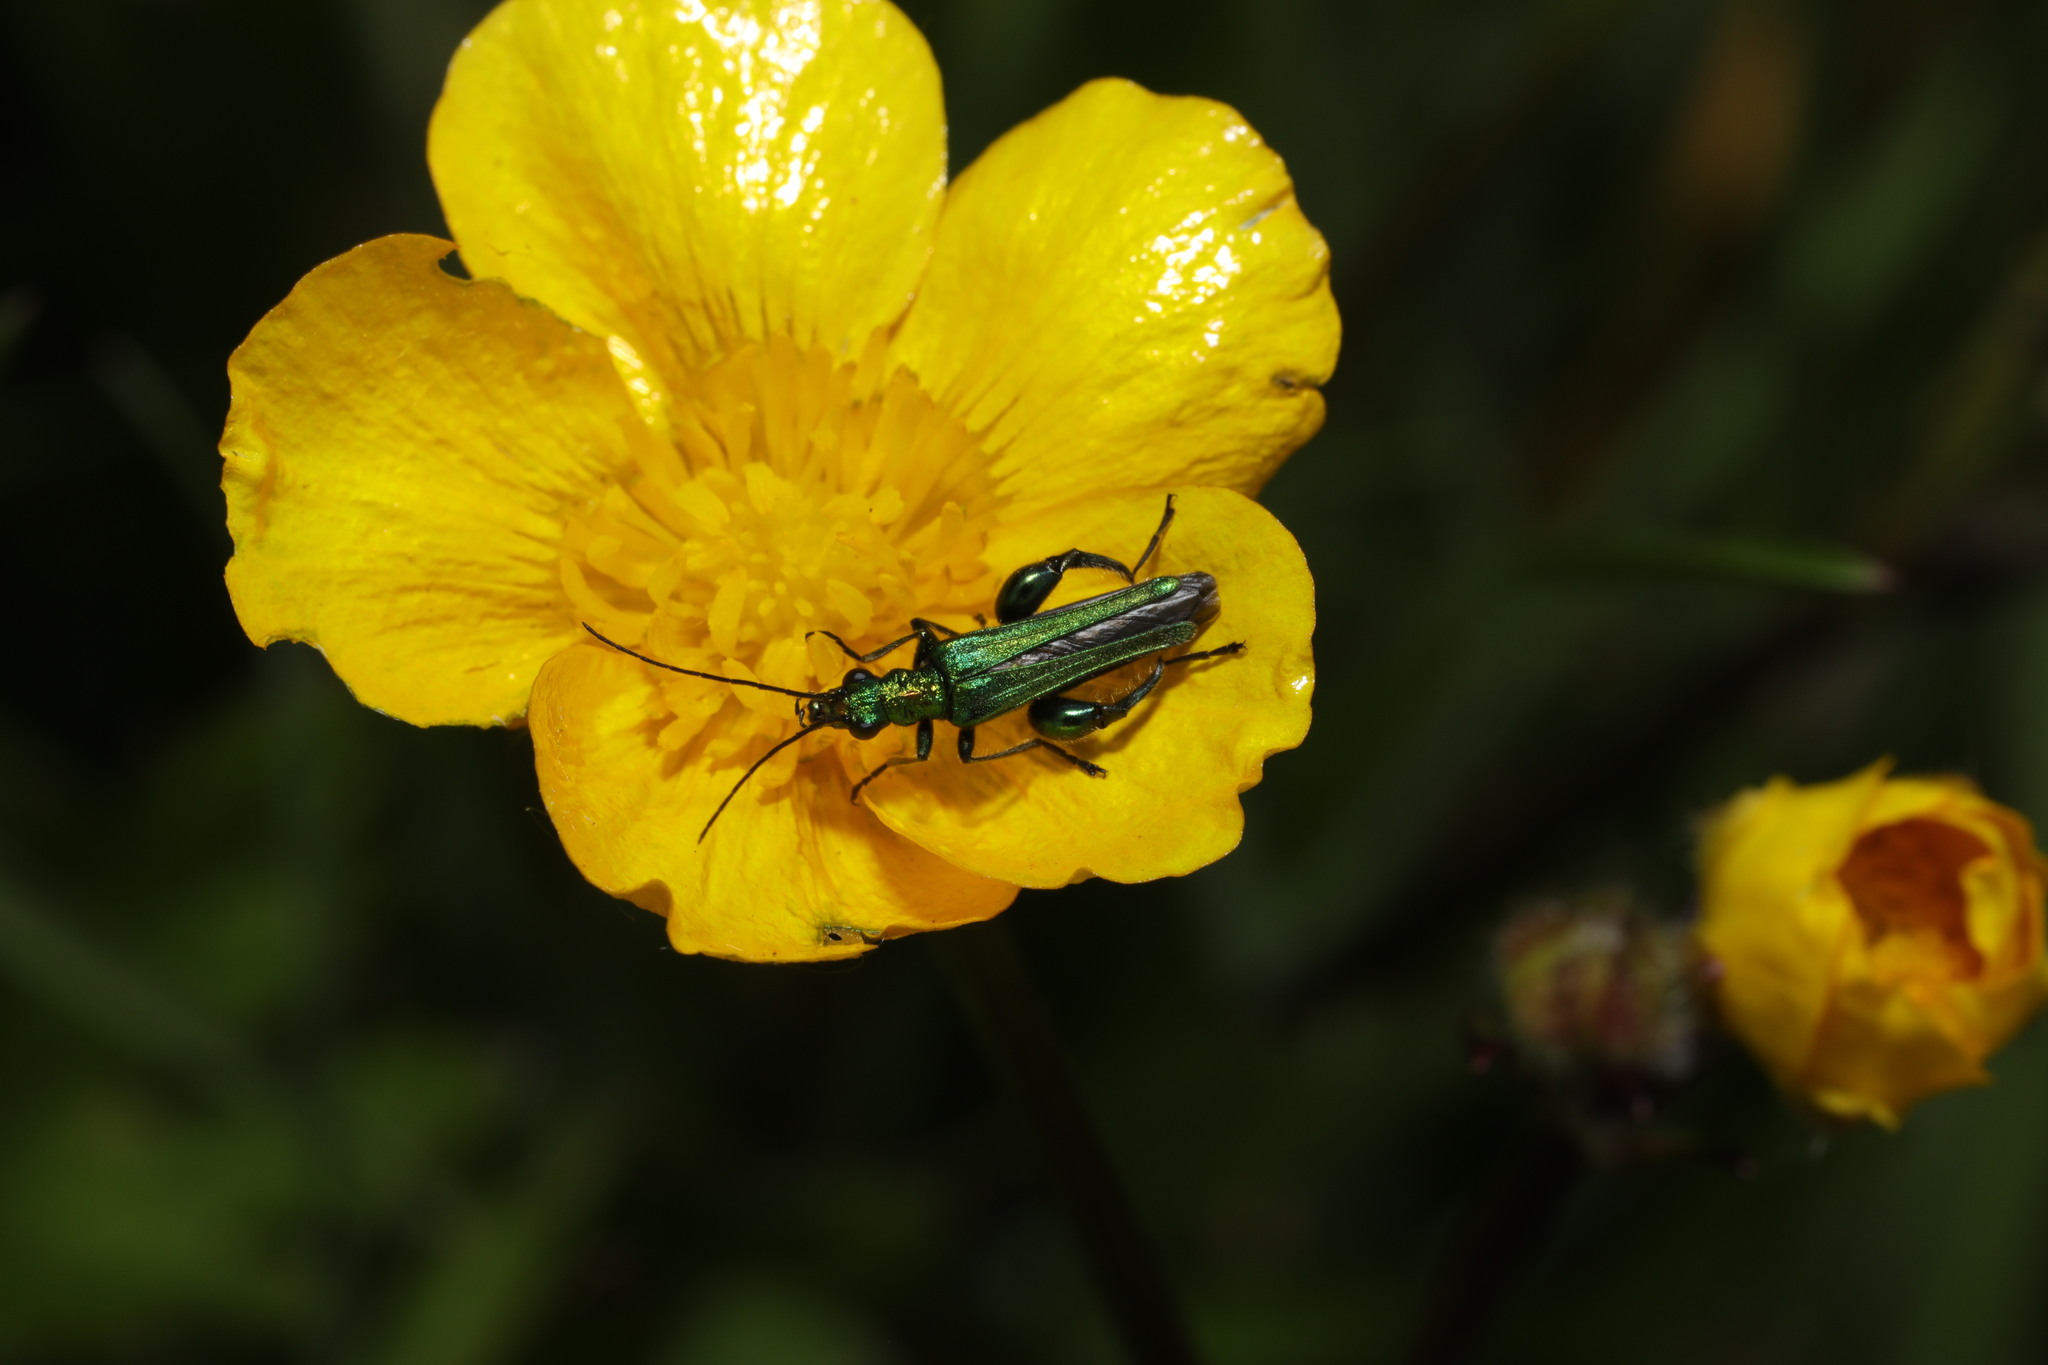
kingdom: Animalia
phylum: Arthropoda
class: Insecta
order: Coleoptera
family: Oedemeridae
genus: Oedemera
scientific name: Oedemera nobilis
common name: Swollen-thighed beetle
